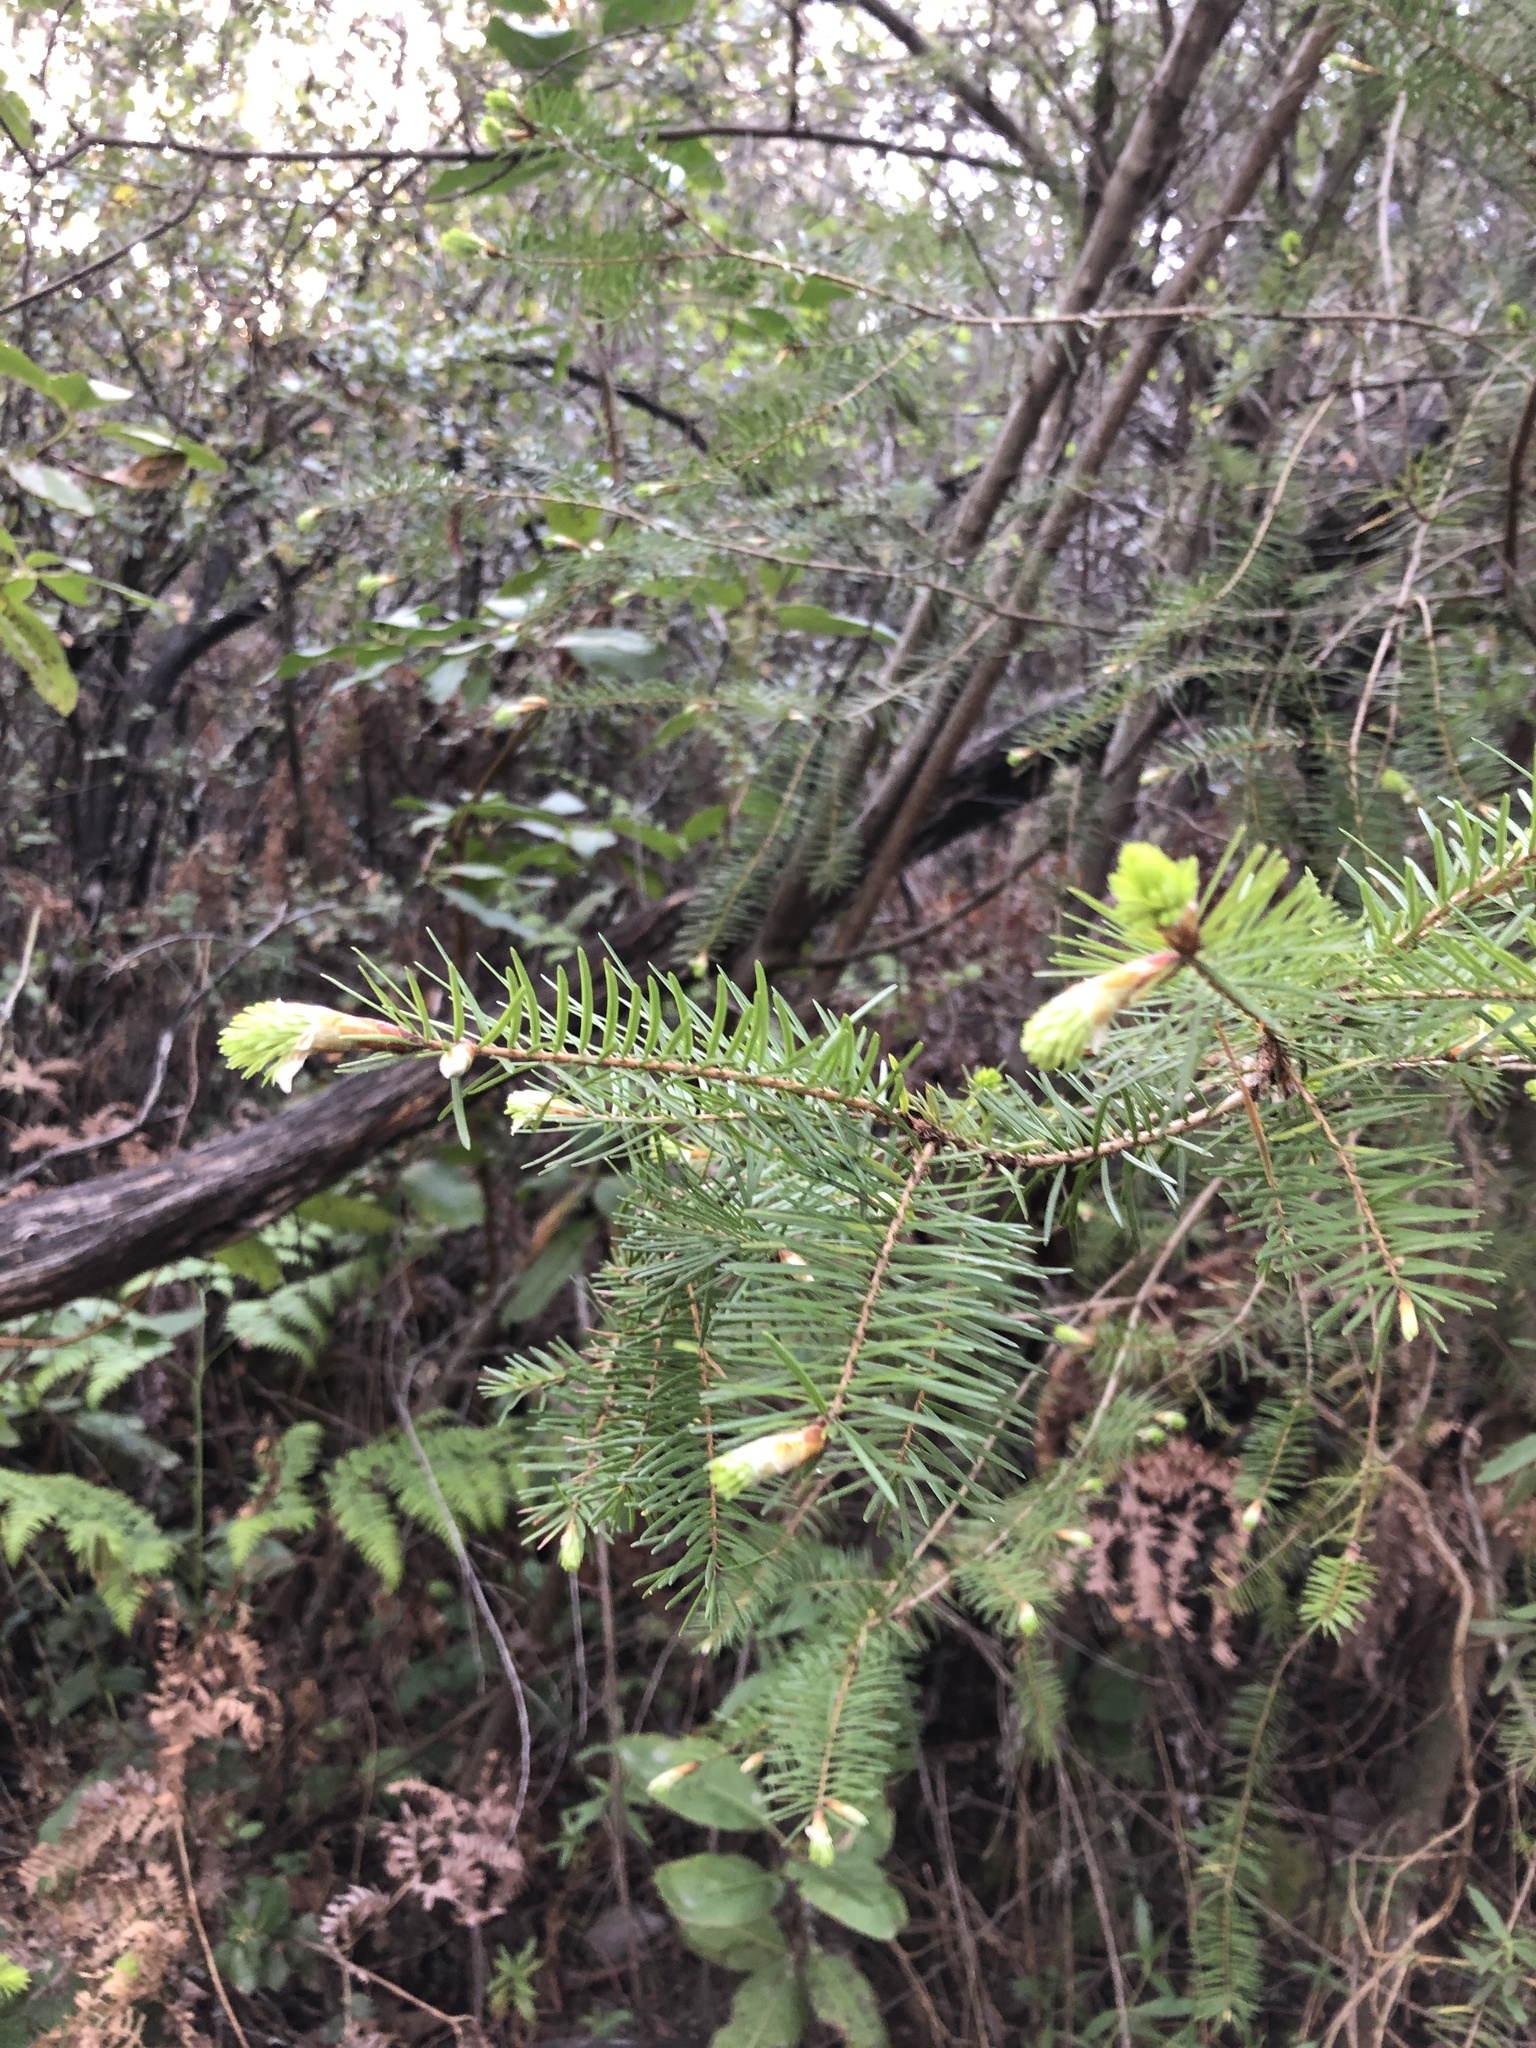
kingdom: Plantae
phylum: Tracheophyta
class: Pinopsida
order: Pinales
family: Pinaceae
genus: Pseudotsuga
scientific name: Pseudotsuga menziesii
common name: Douglas fir
